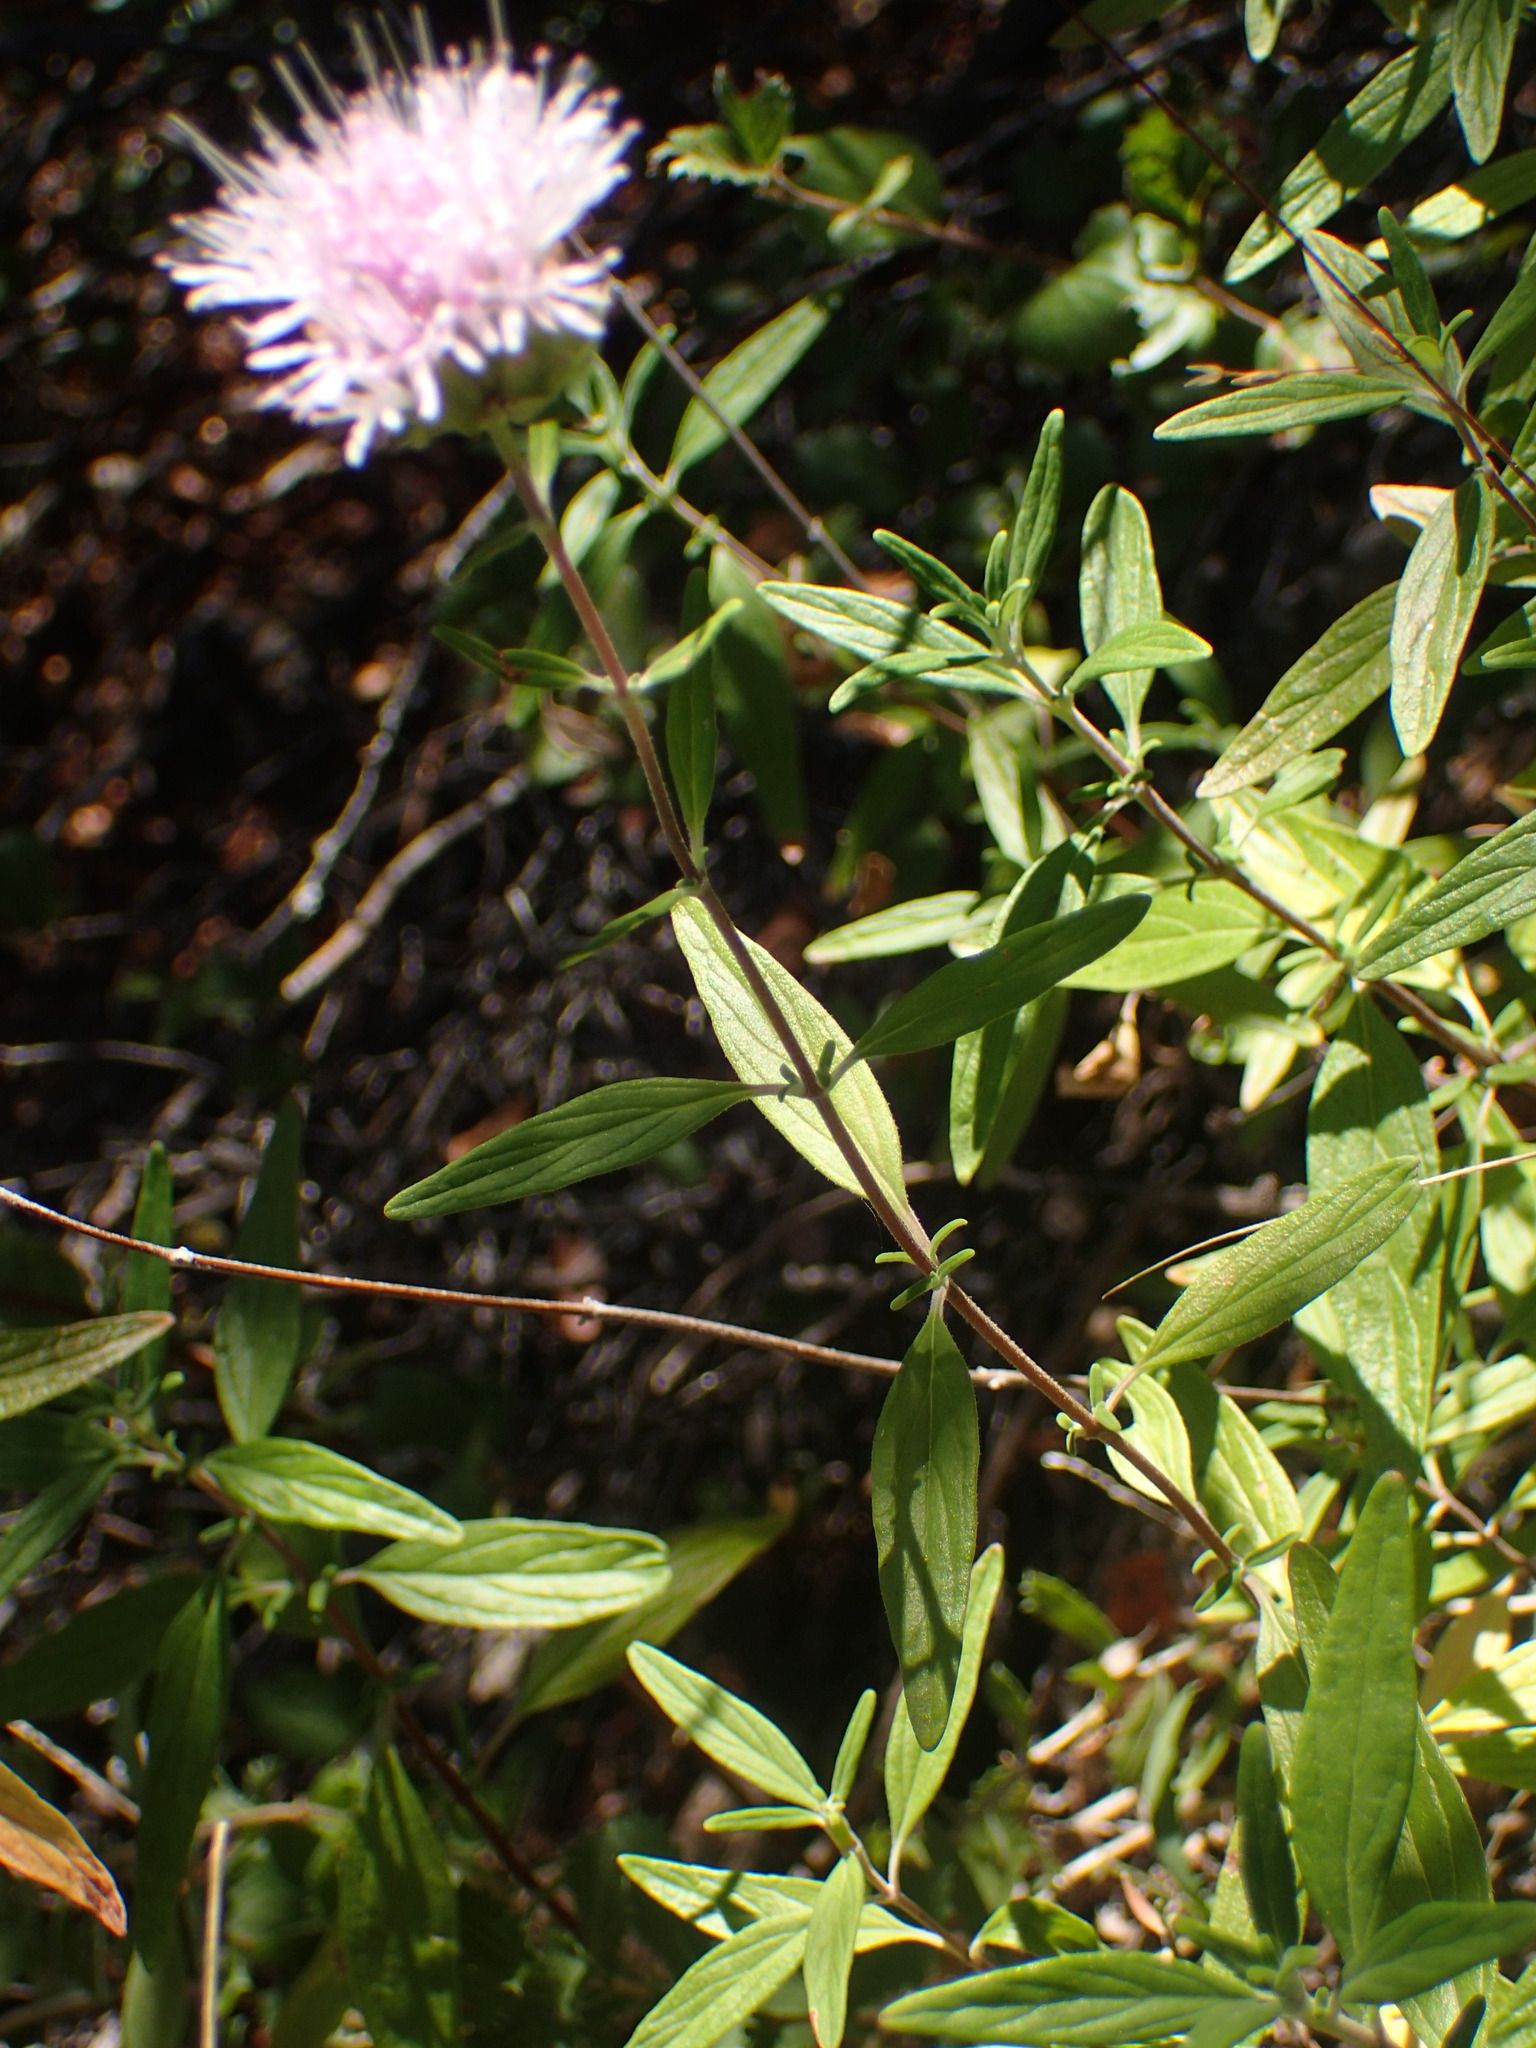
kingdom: Plantae
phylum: Tracheophyta
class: Magnoliopsida
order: Lamiales
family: Lamiaceae
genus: Monardella
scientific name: Monardella hypoleuca
